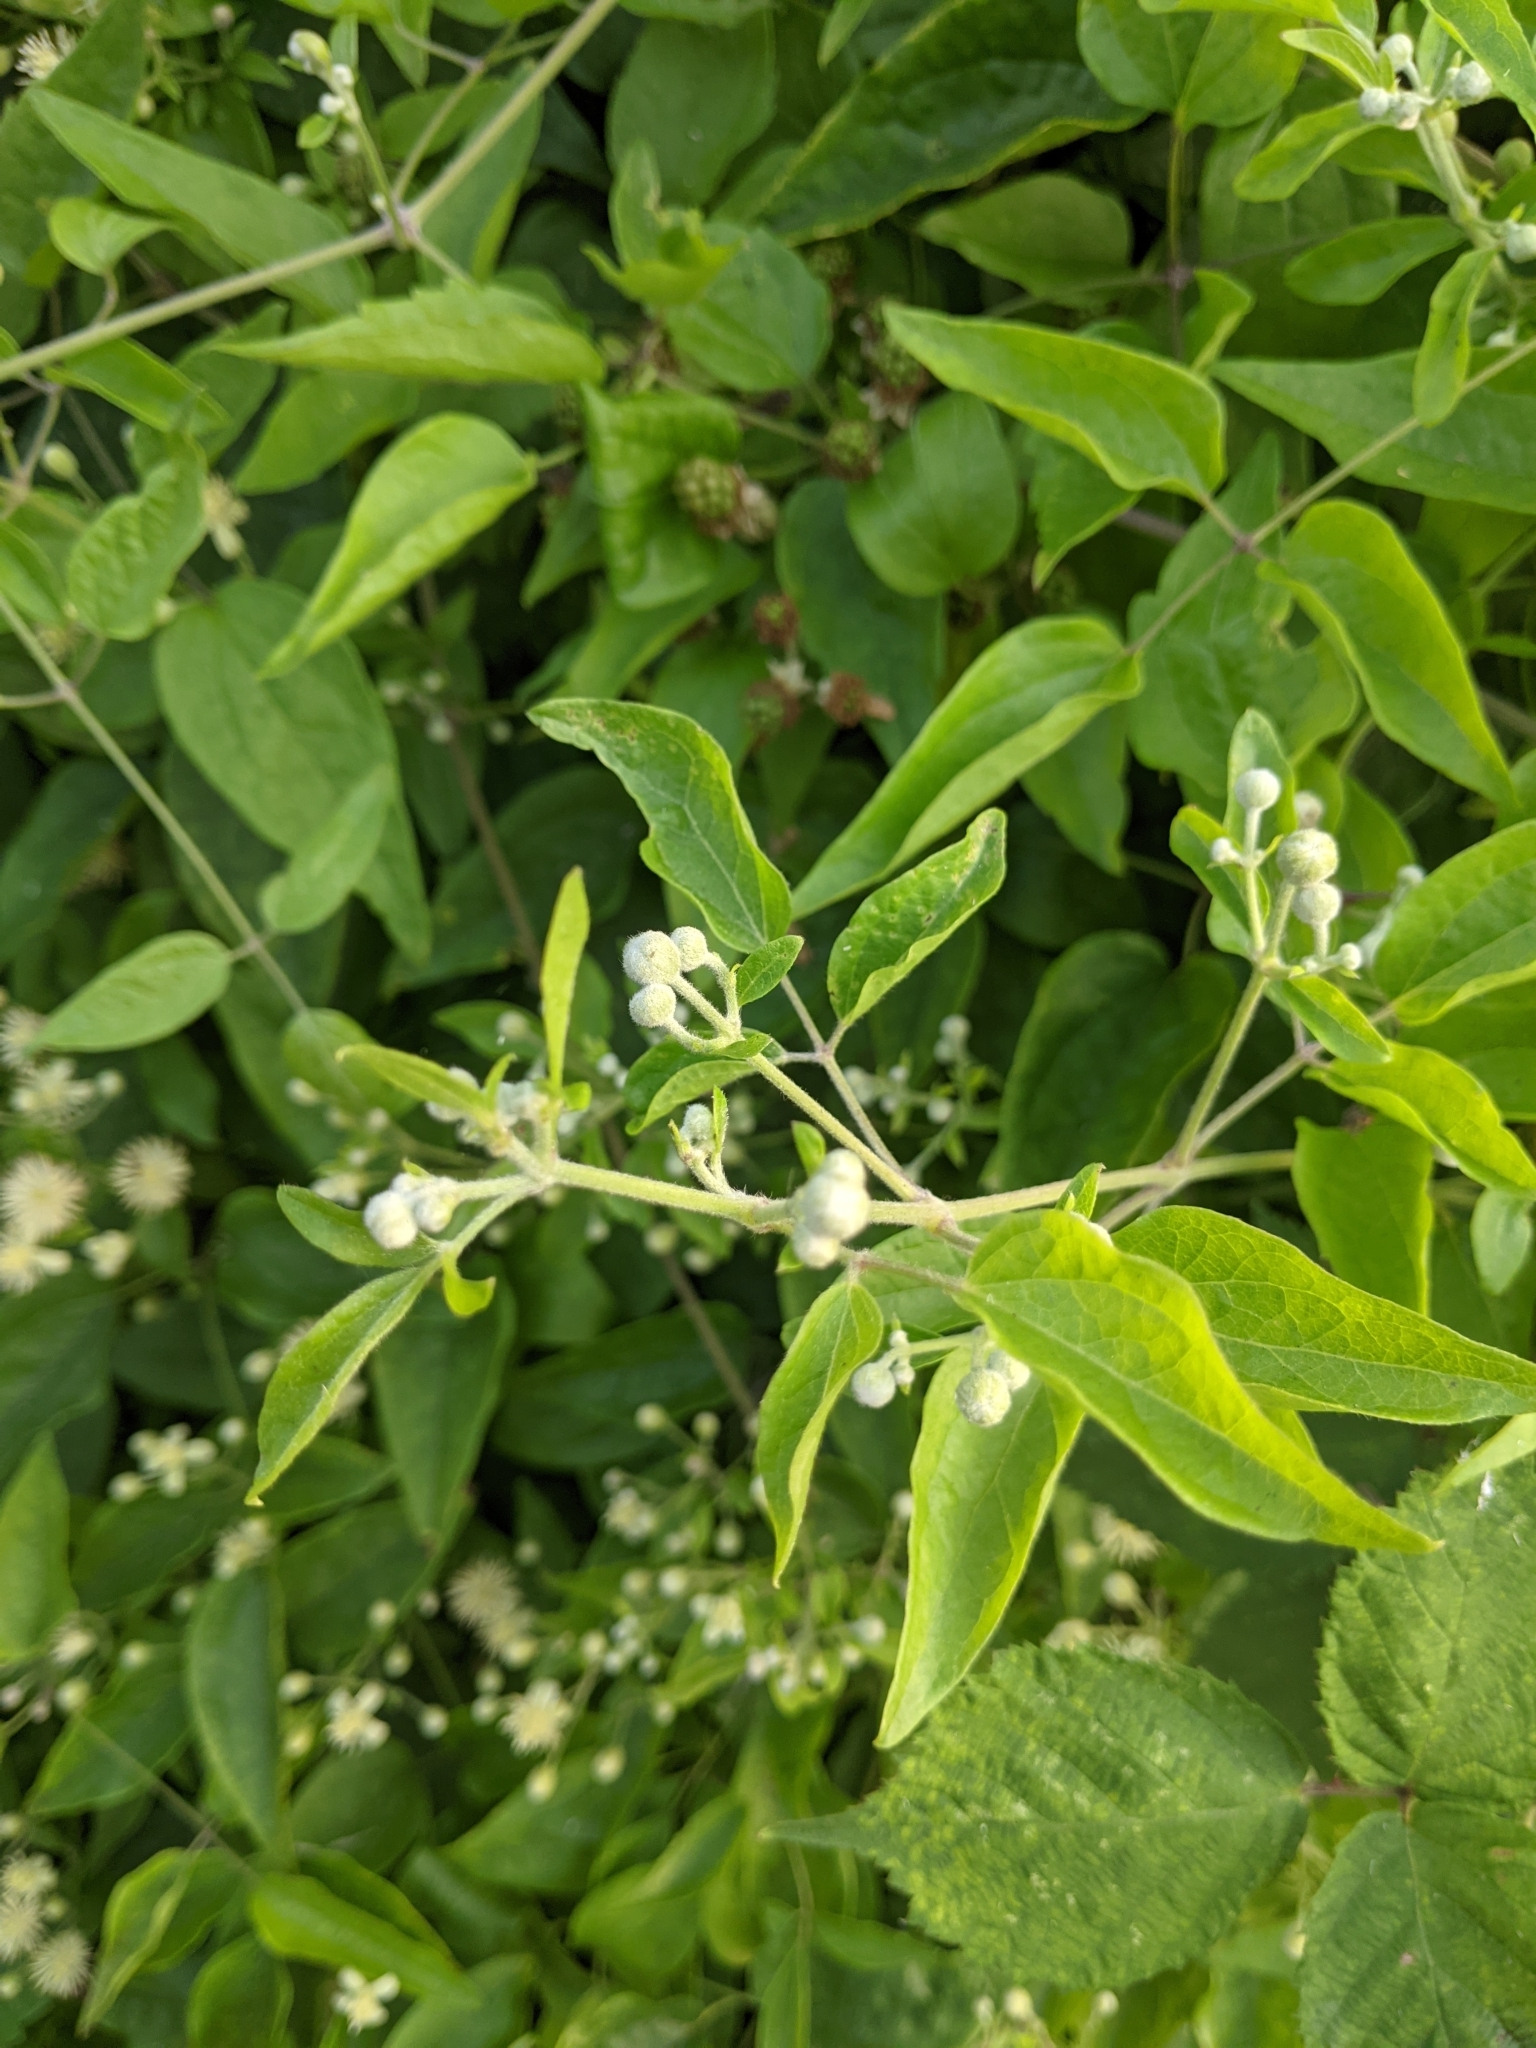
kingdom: Plantae
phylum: Tracheophyta
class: Magnoliopsida
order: Ranunculales
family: Ranunculaceae
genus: Clematis
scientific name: Clematis vitalba
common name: Evergreen clematis
